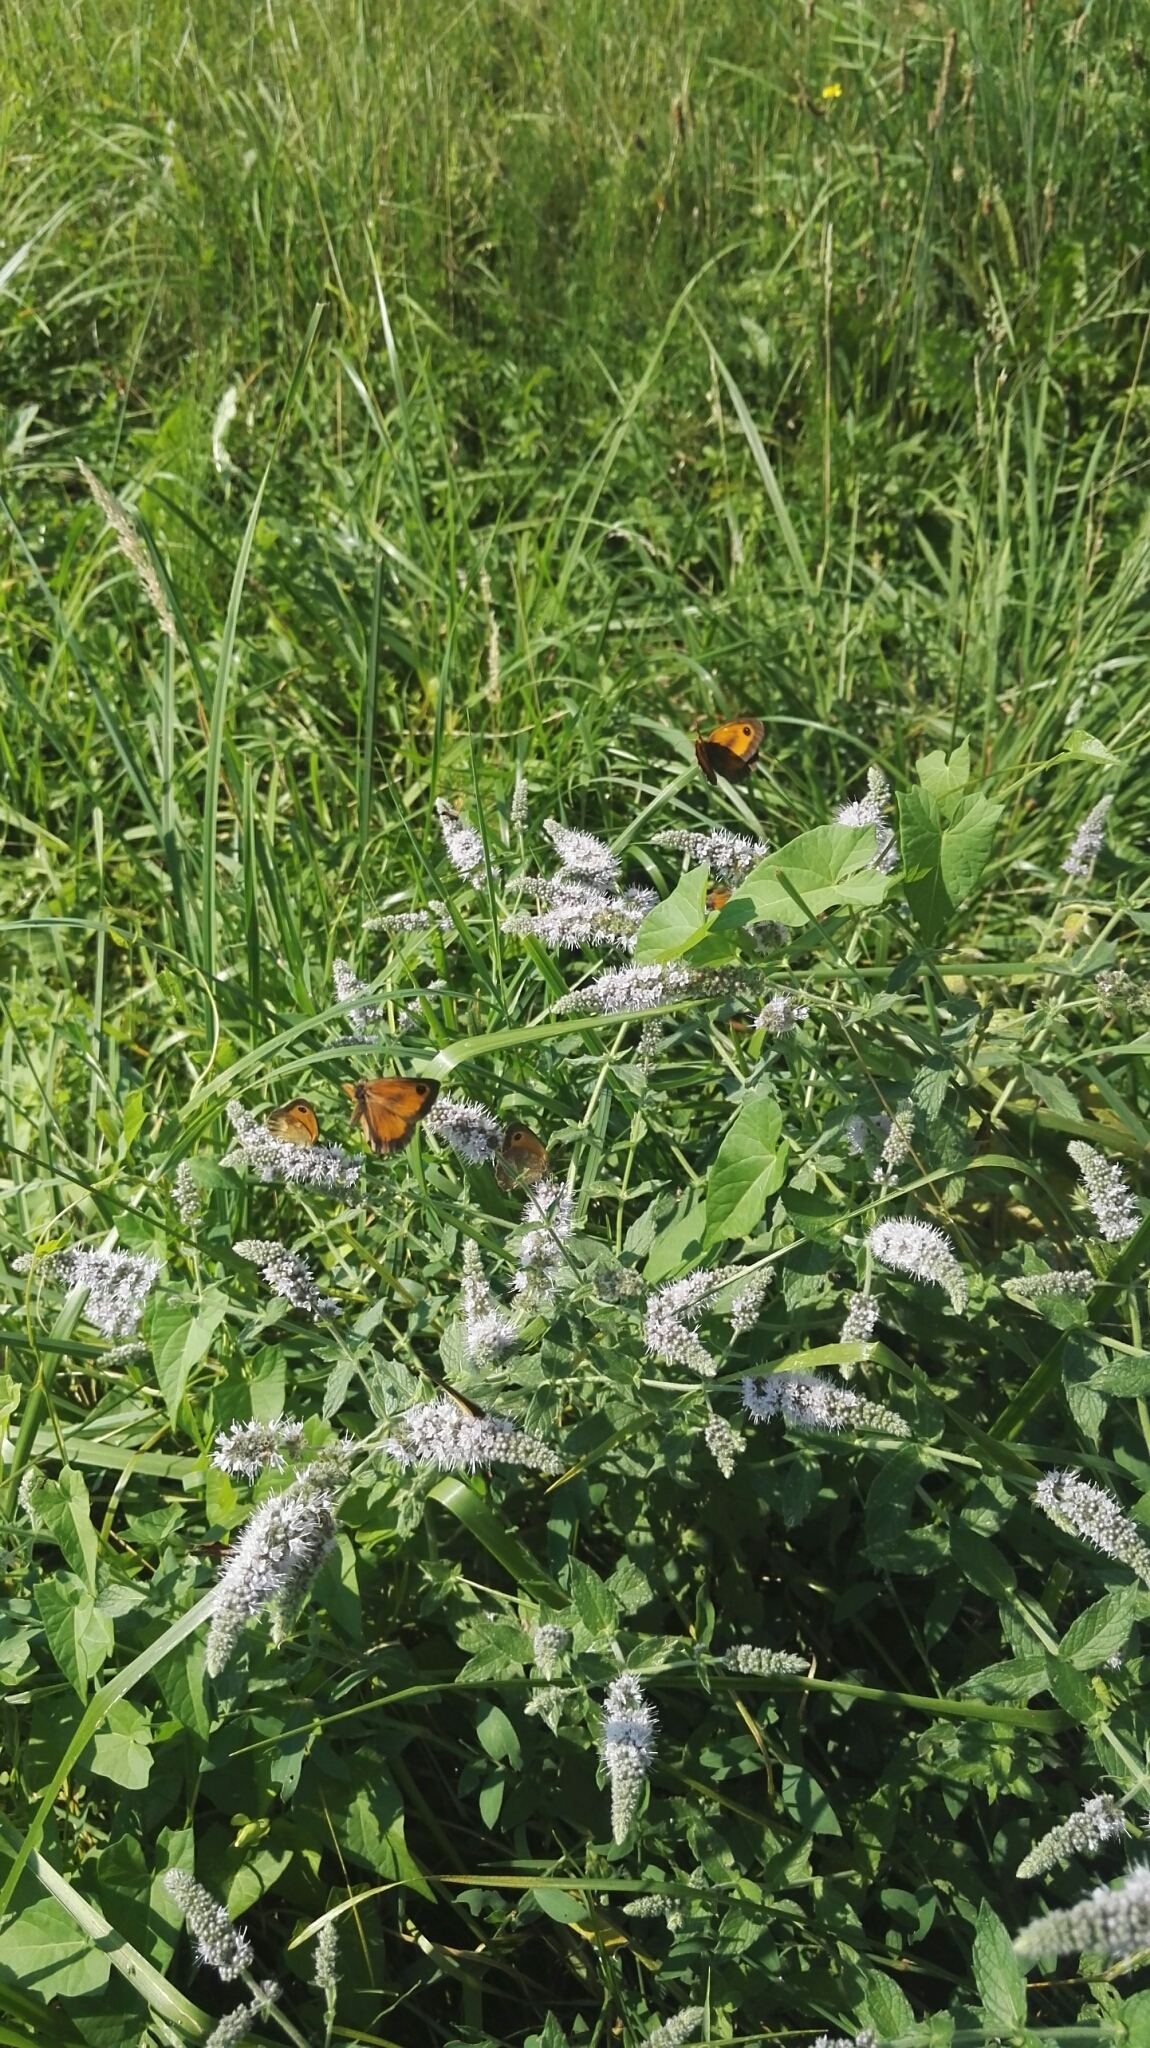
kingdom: Animalia
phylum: Arthropoda
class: Insecta
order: Lepidoptera
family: Nymphalidae
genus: Pyronia
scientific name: Pyronia tithonus
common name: Gatekeeper
